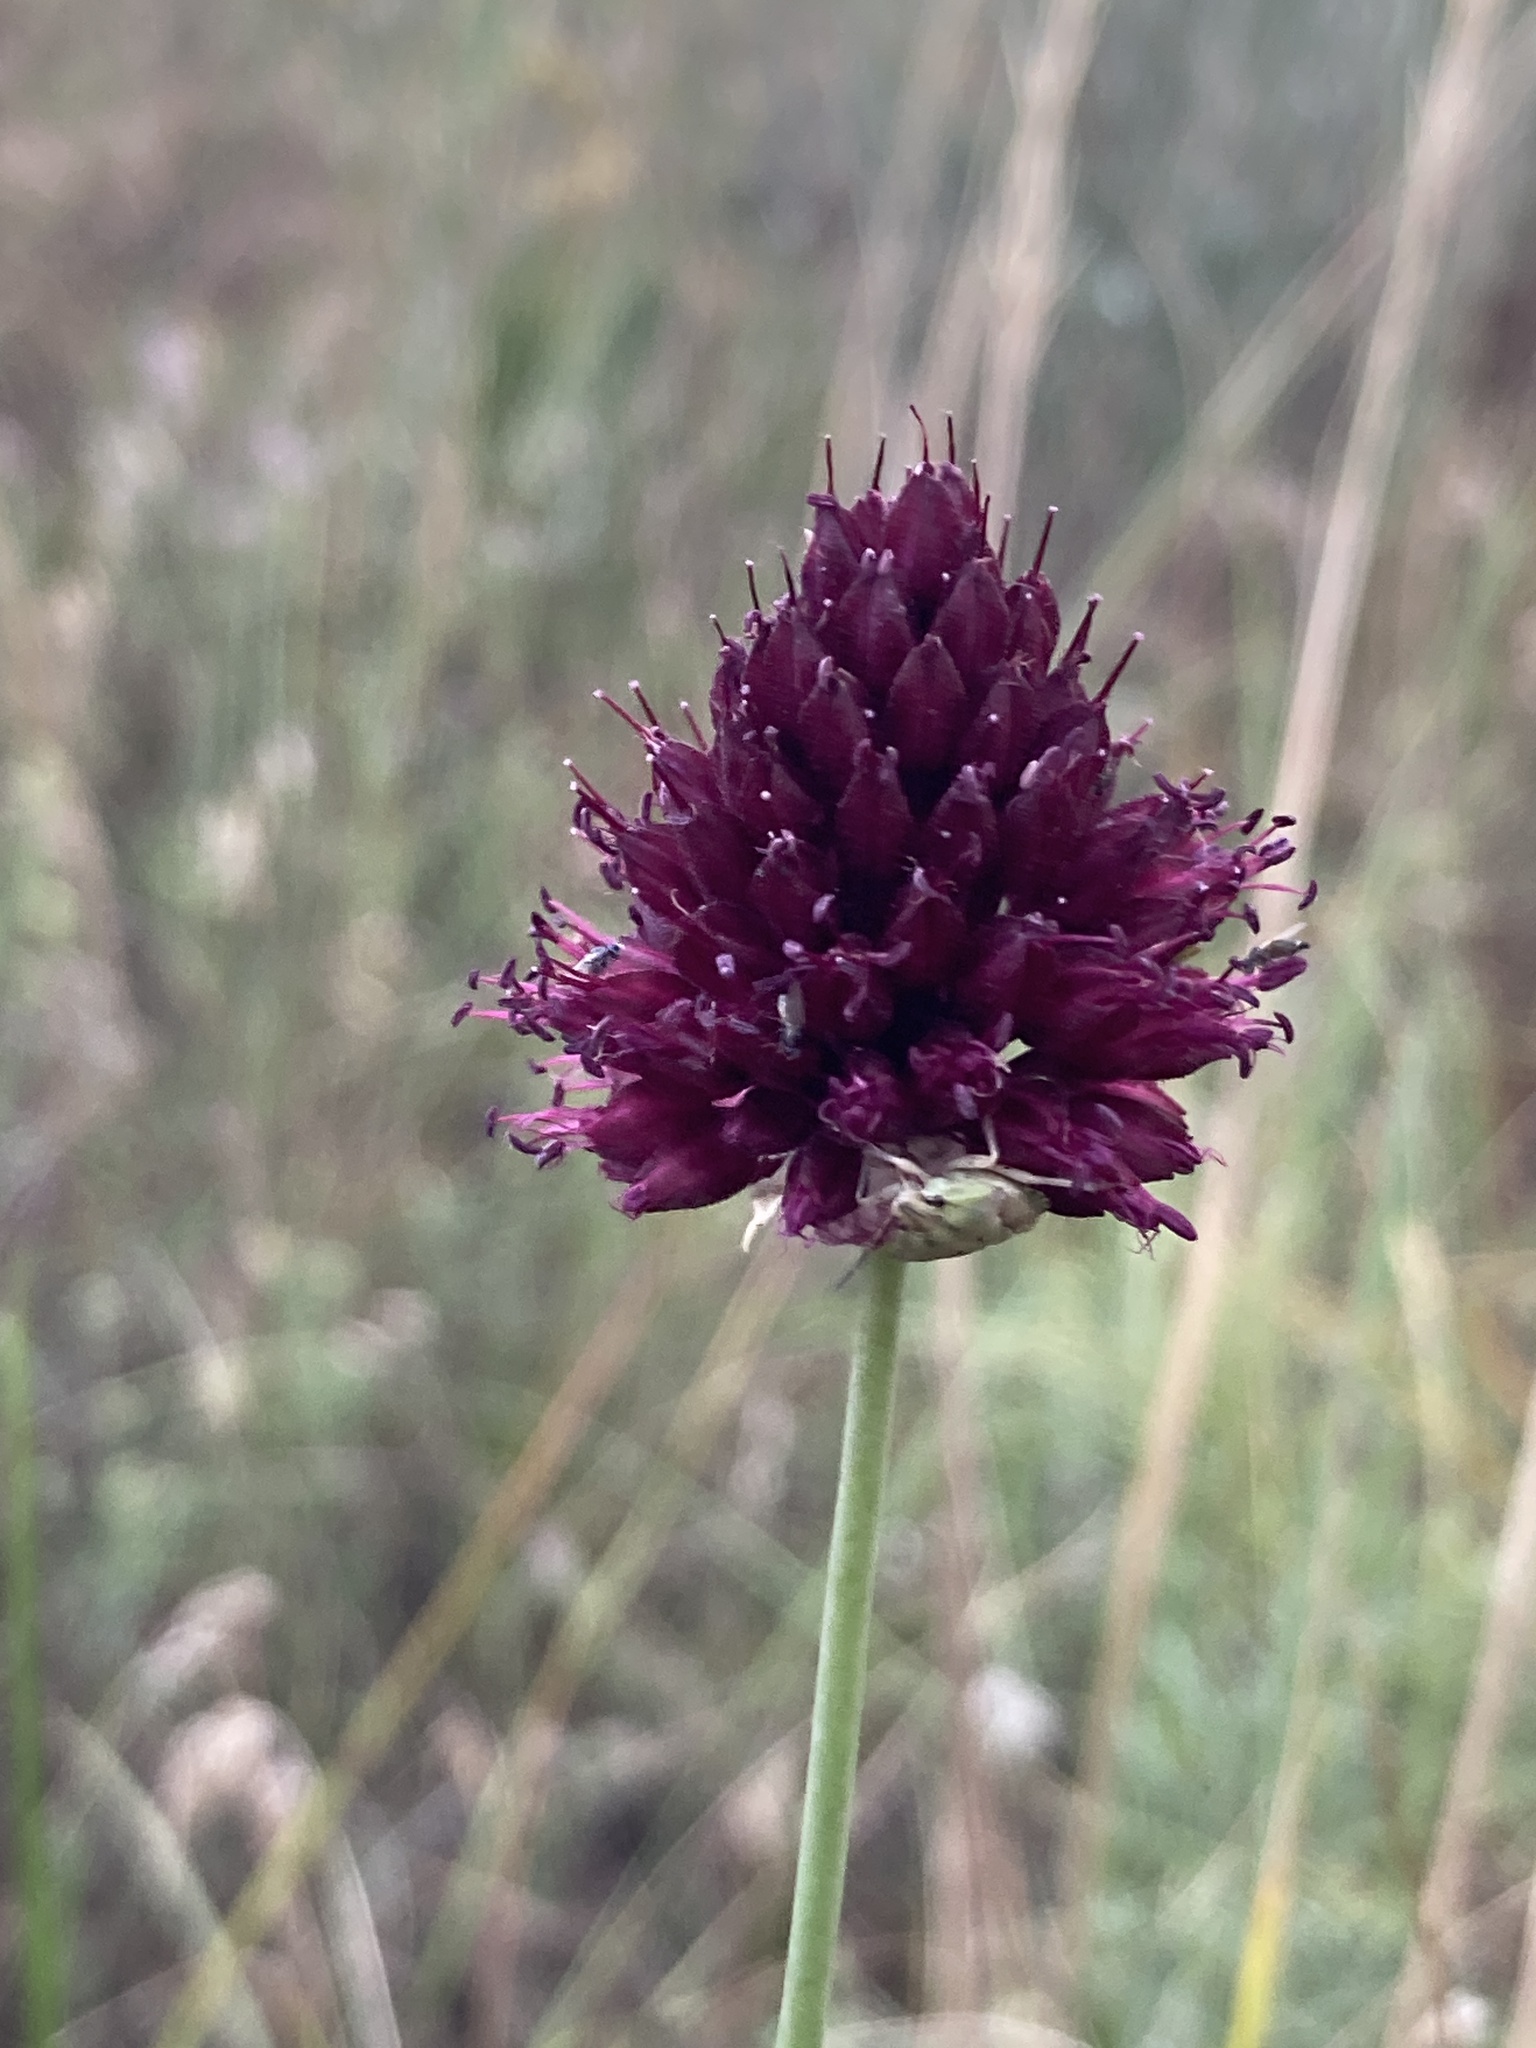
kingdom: Plantae
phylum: Tracheophyta
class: Liliopsida
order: Asparagales
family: Amaryllidaceae
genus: Allium
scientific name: Allium sphaerocephalon
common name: Round-headed leek
